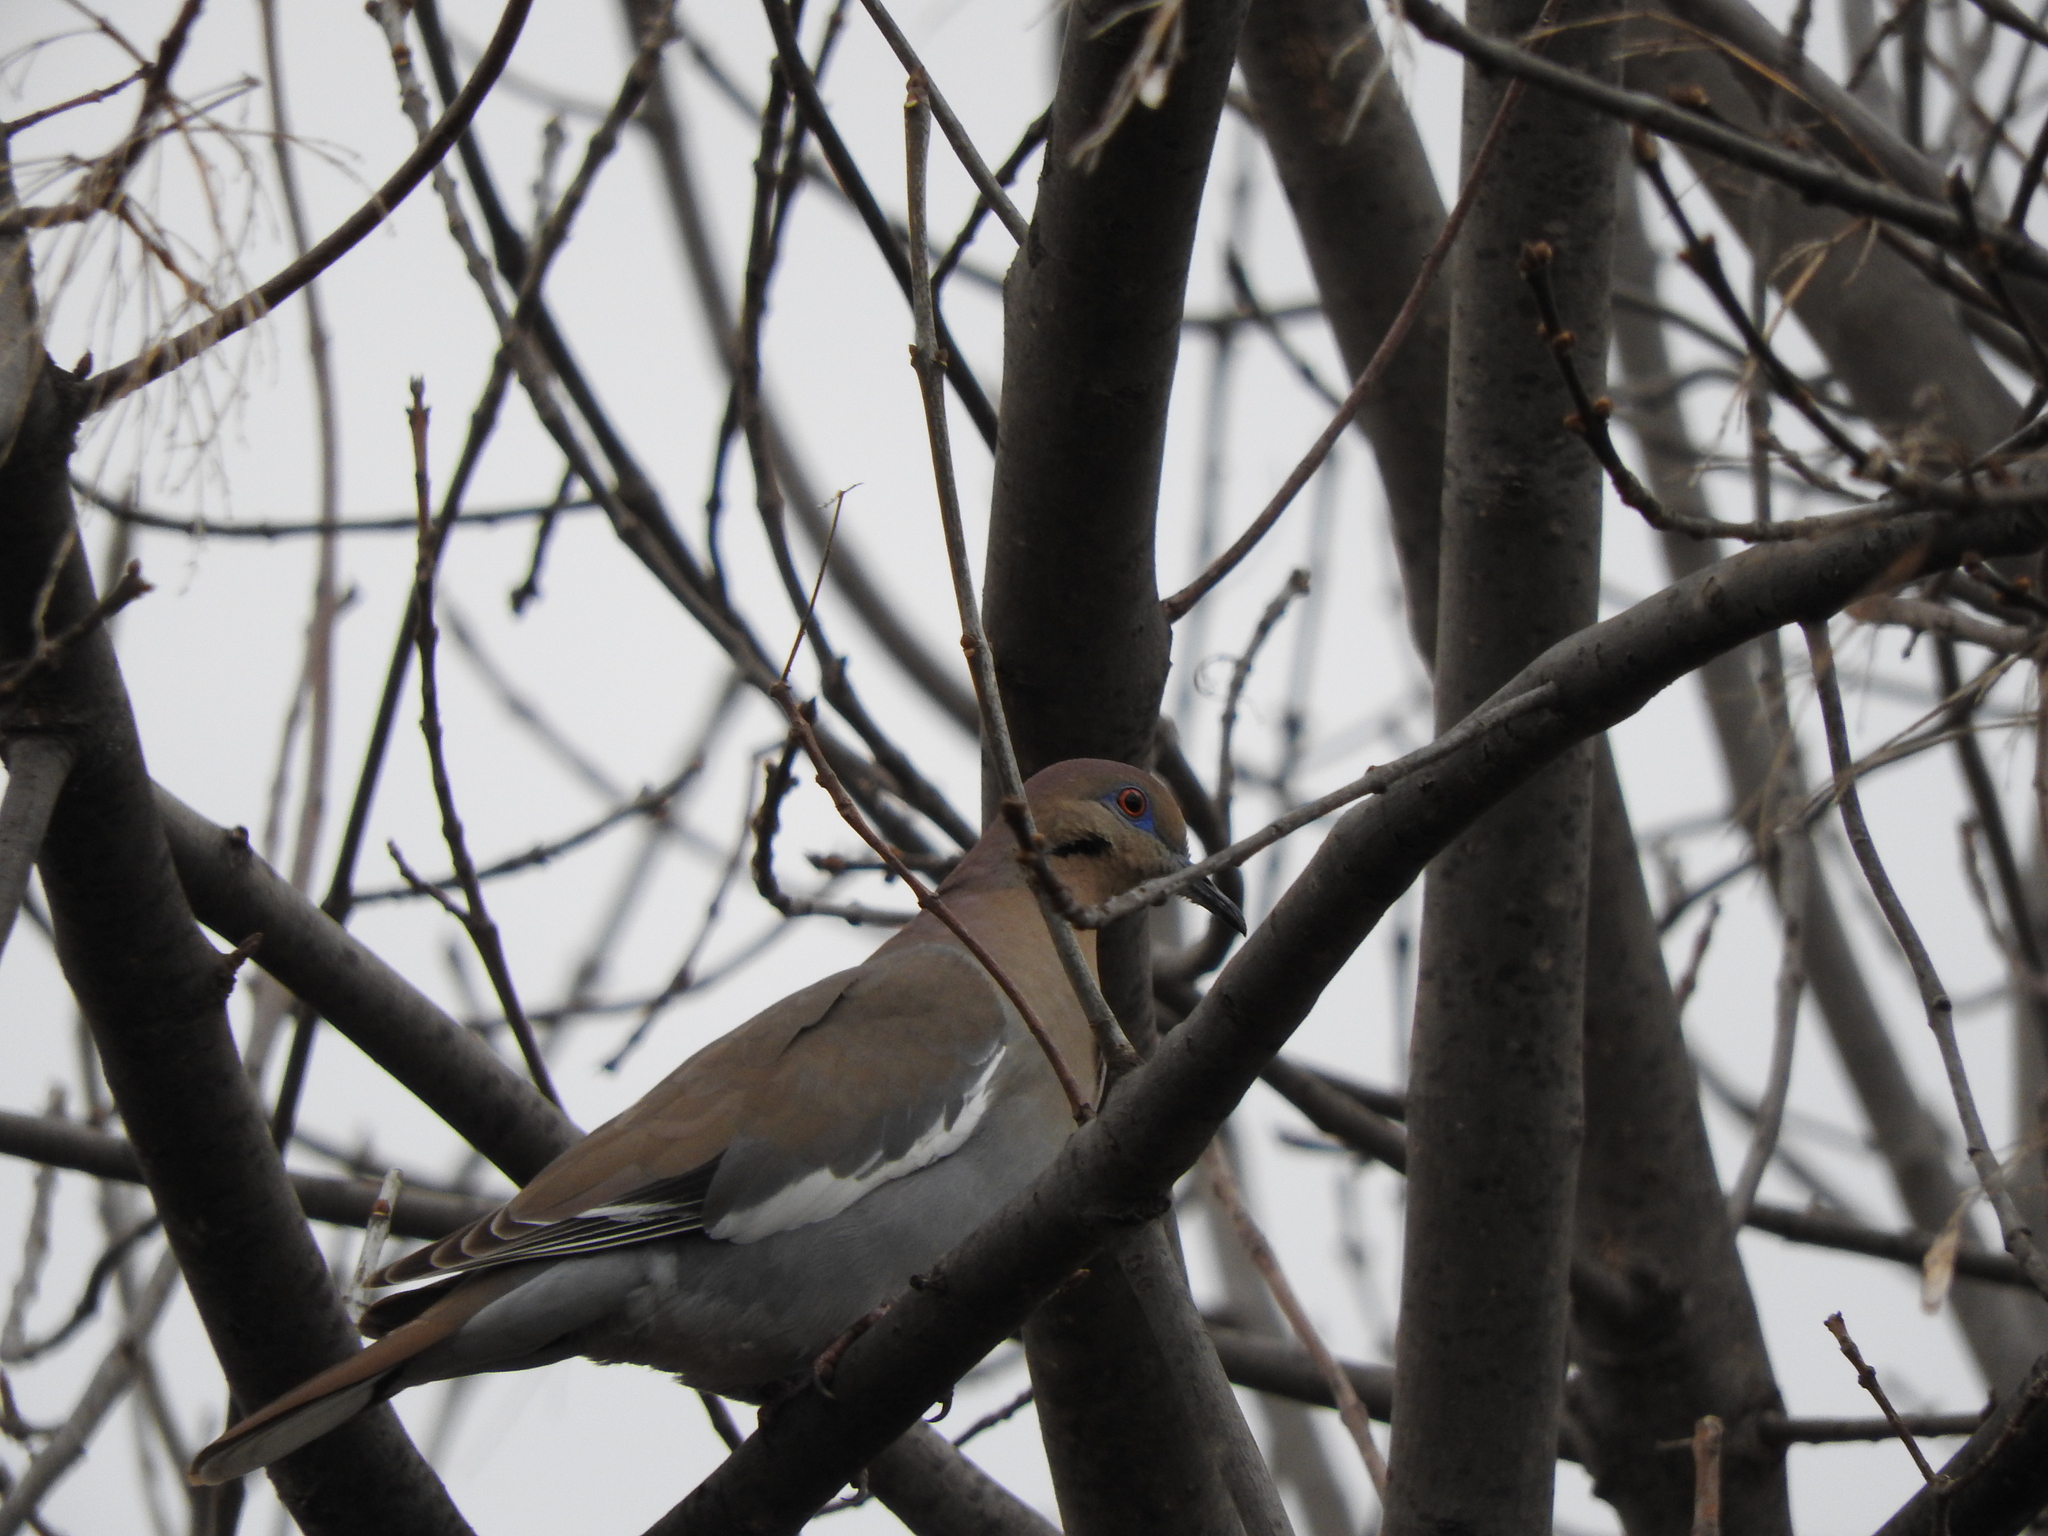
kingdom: Animalia
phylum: Chordata
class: Aves
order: Columbiformes
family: Columbidae
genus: Zenaida
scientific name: Zenaida asiatica
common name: White-winged dove
